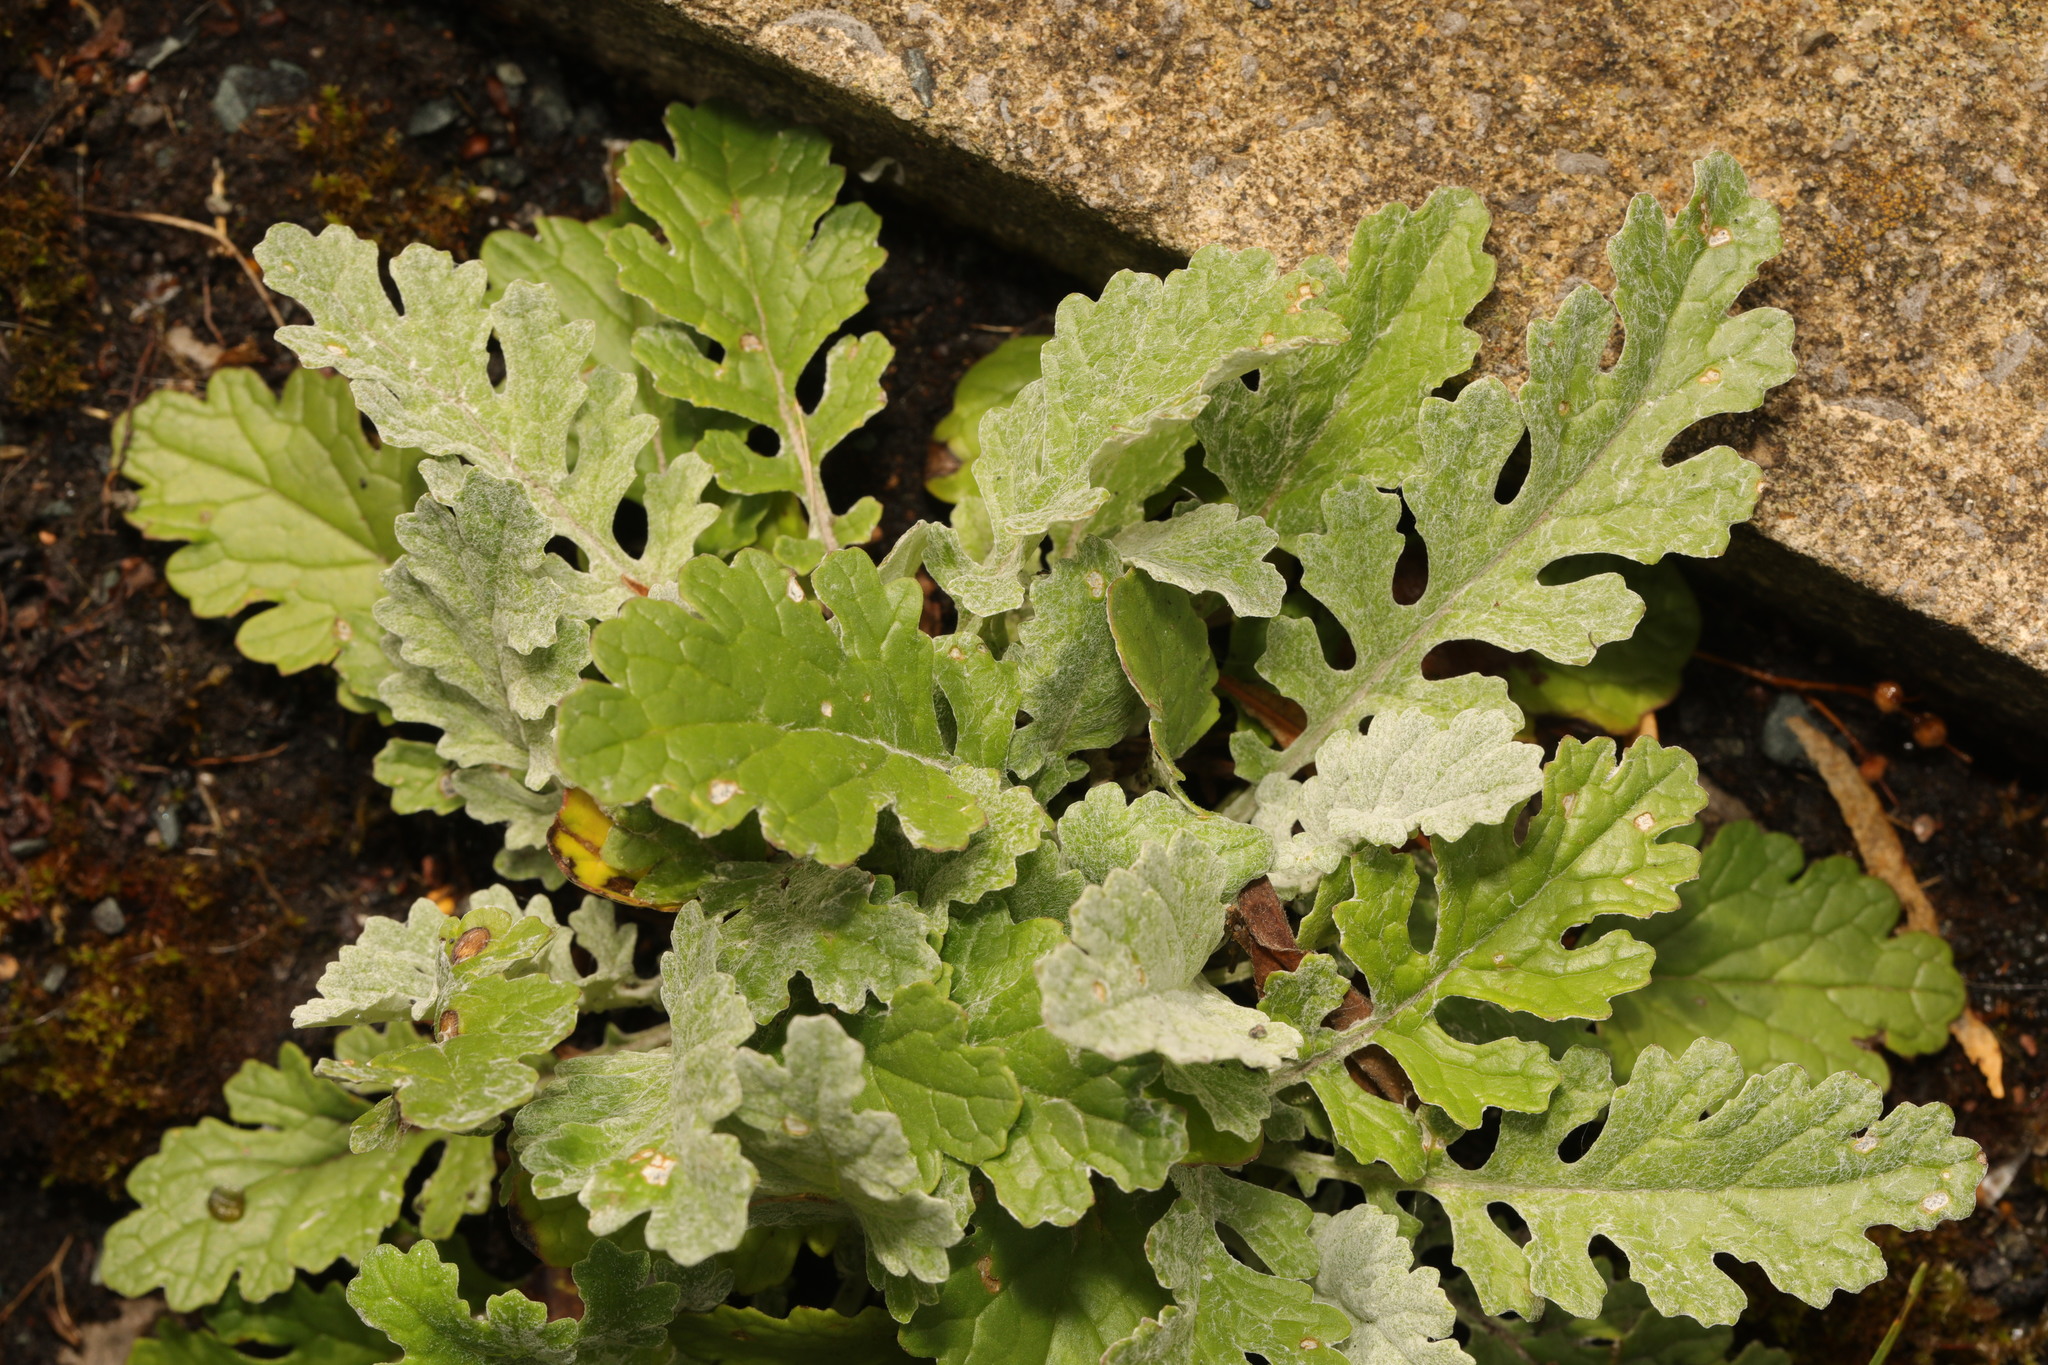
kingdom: Plantae
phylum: Tracheophyta
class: Magnoliopsida
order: Asterales
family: Asteraceae
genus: Jacobaea
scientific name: Jacobaea albescens
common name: Hybrid ragwort
